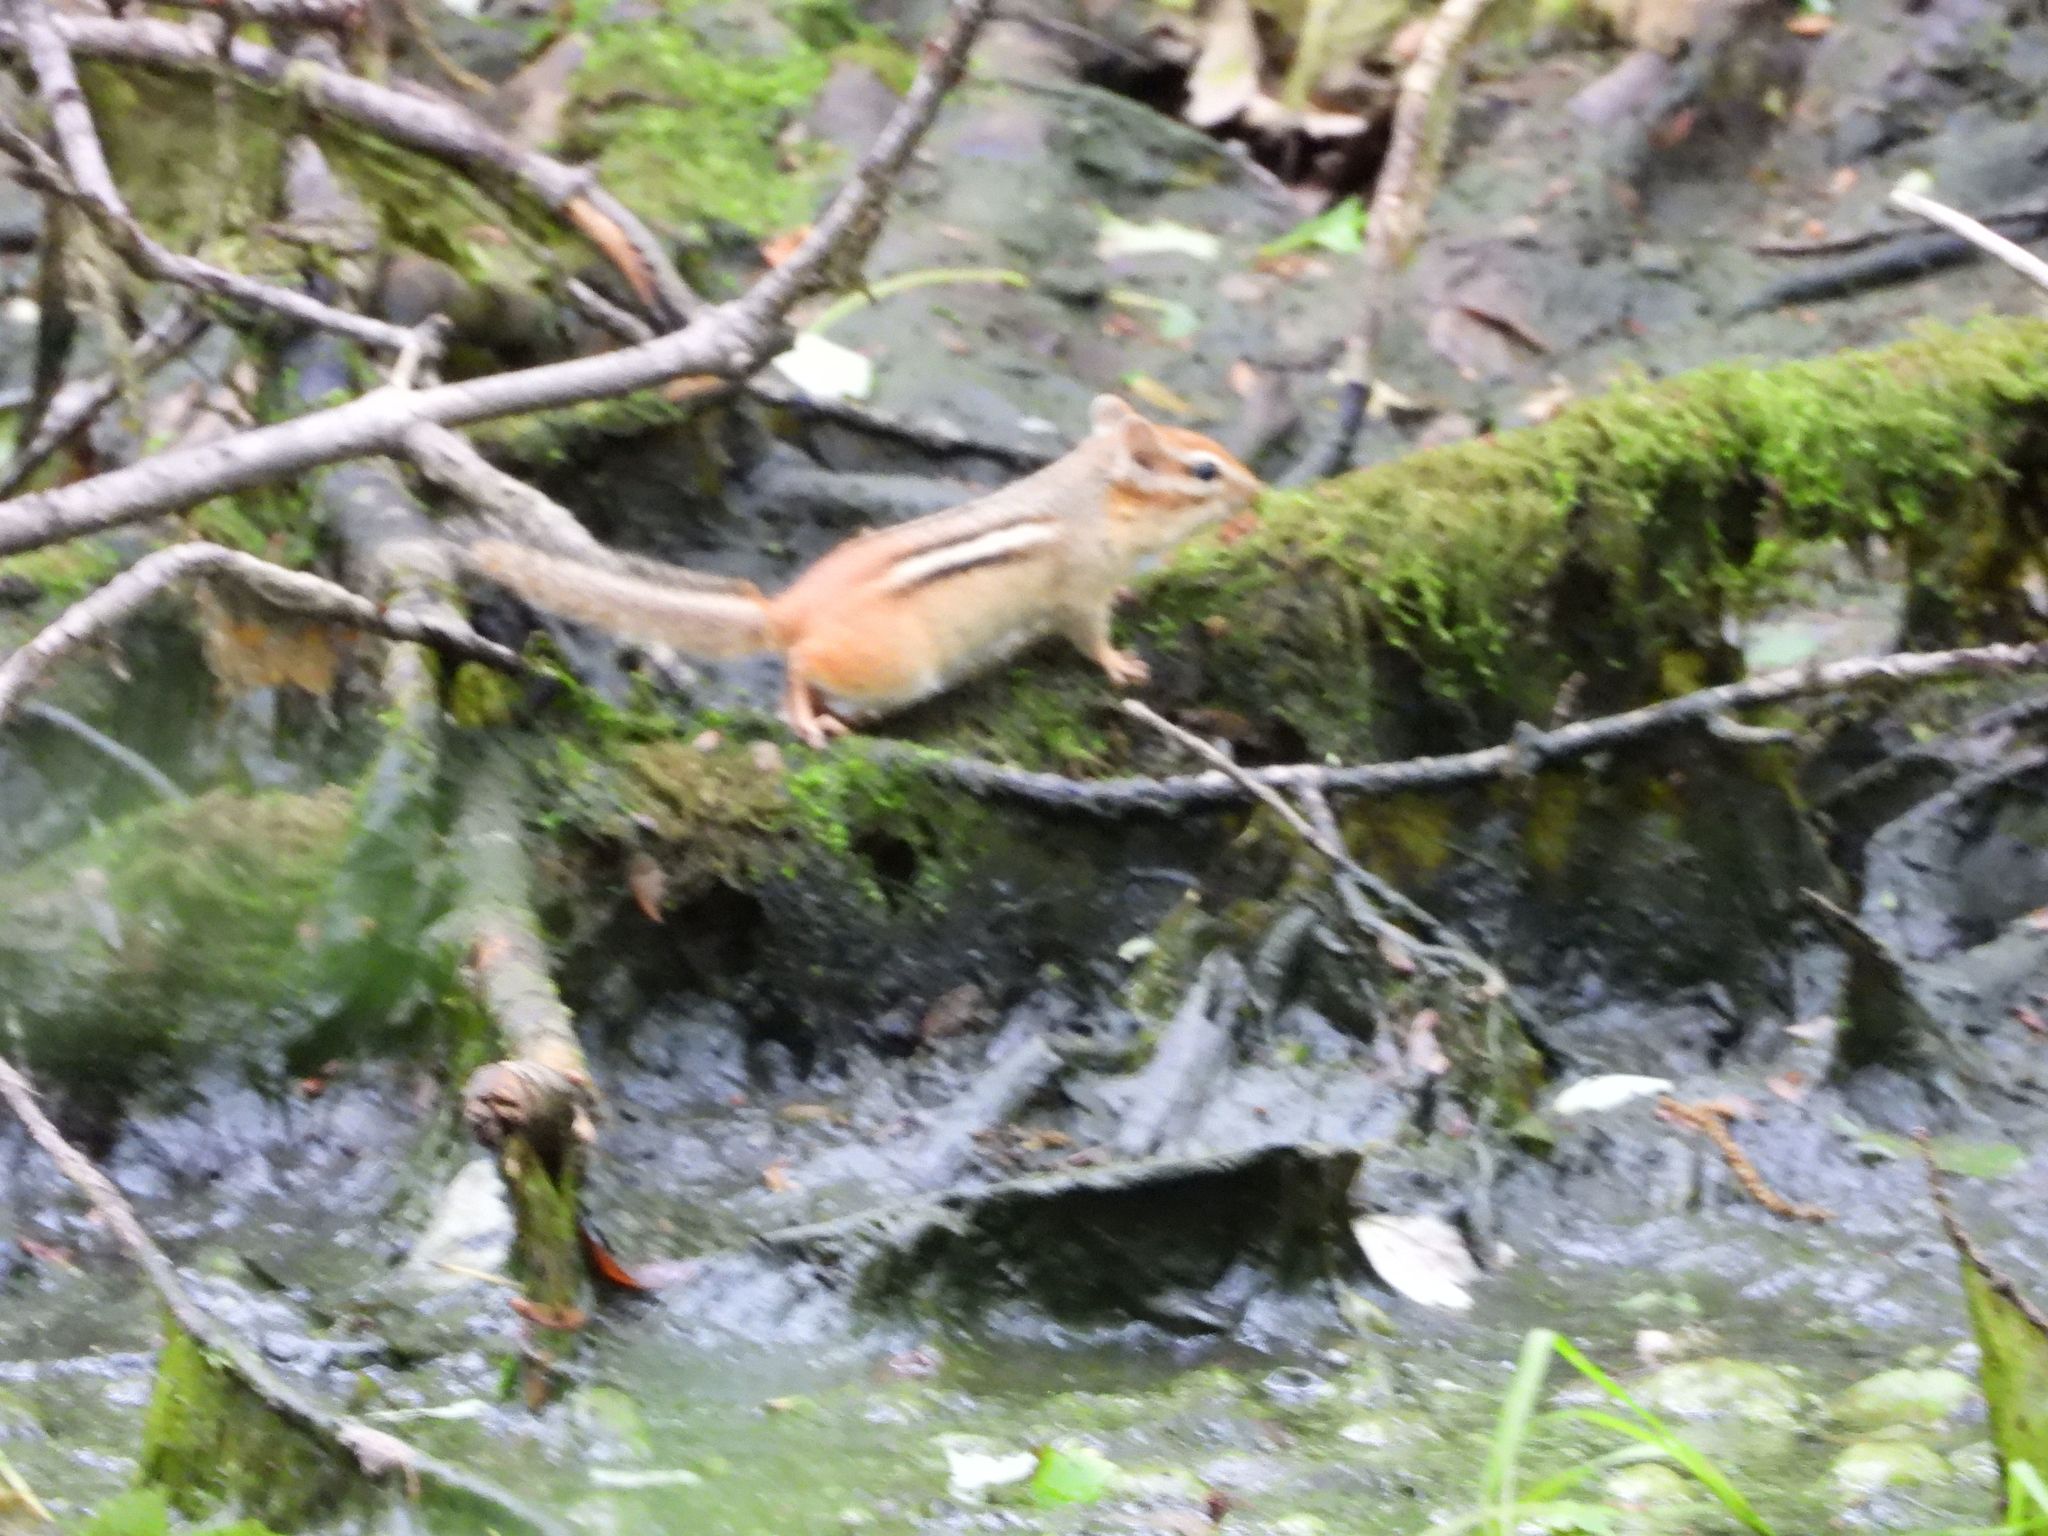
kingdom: Animalia
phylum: Chordata
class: Mammalia
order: Rodentia
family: Sciuridae
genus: Tamias
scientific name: Tamias striatus
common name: Eastern chipmunk
